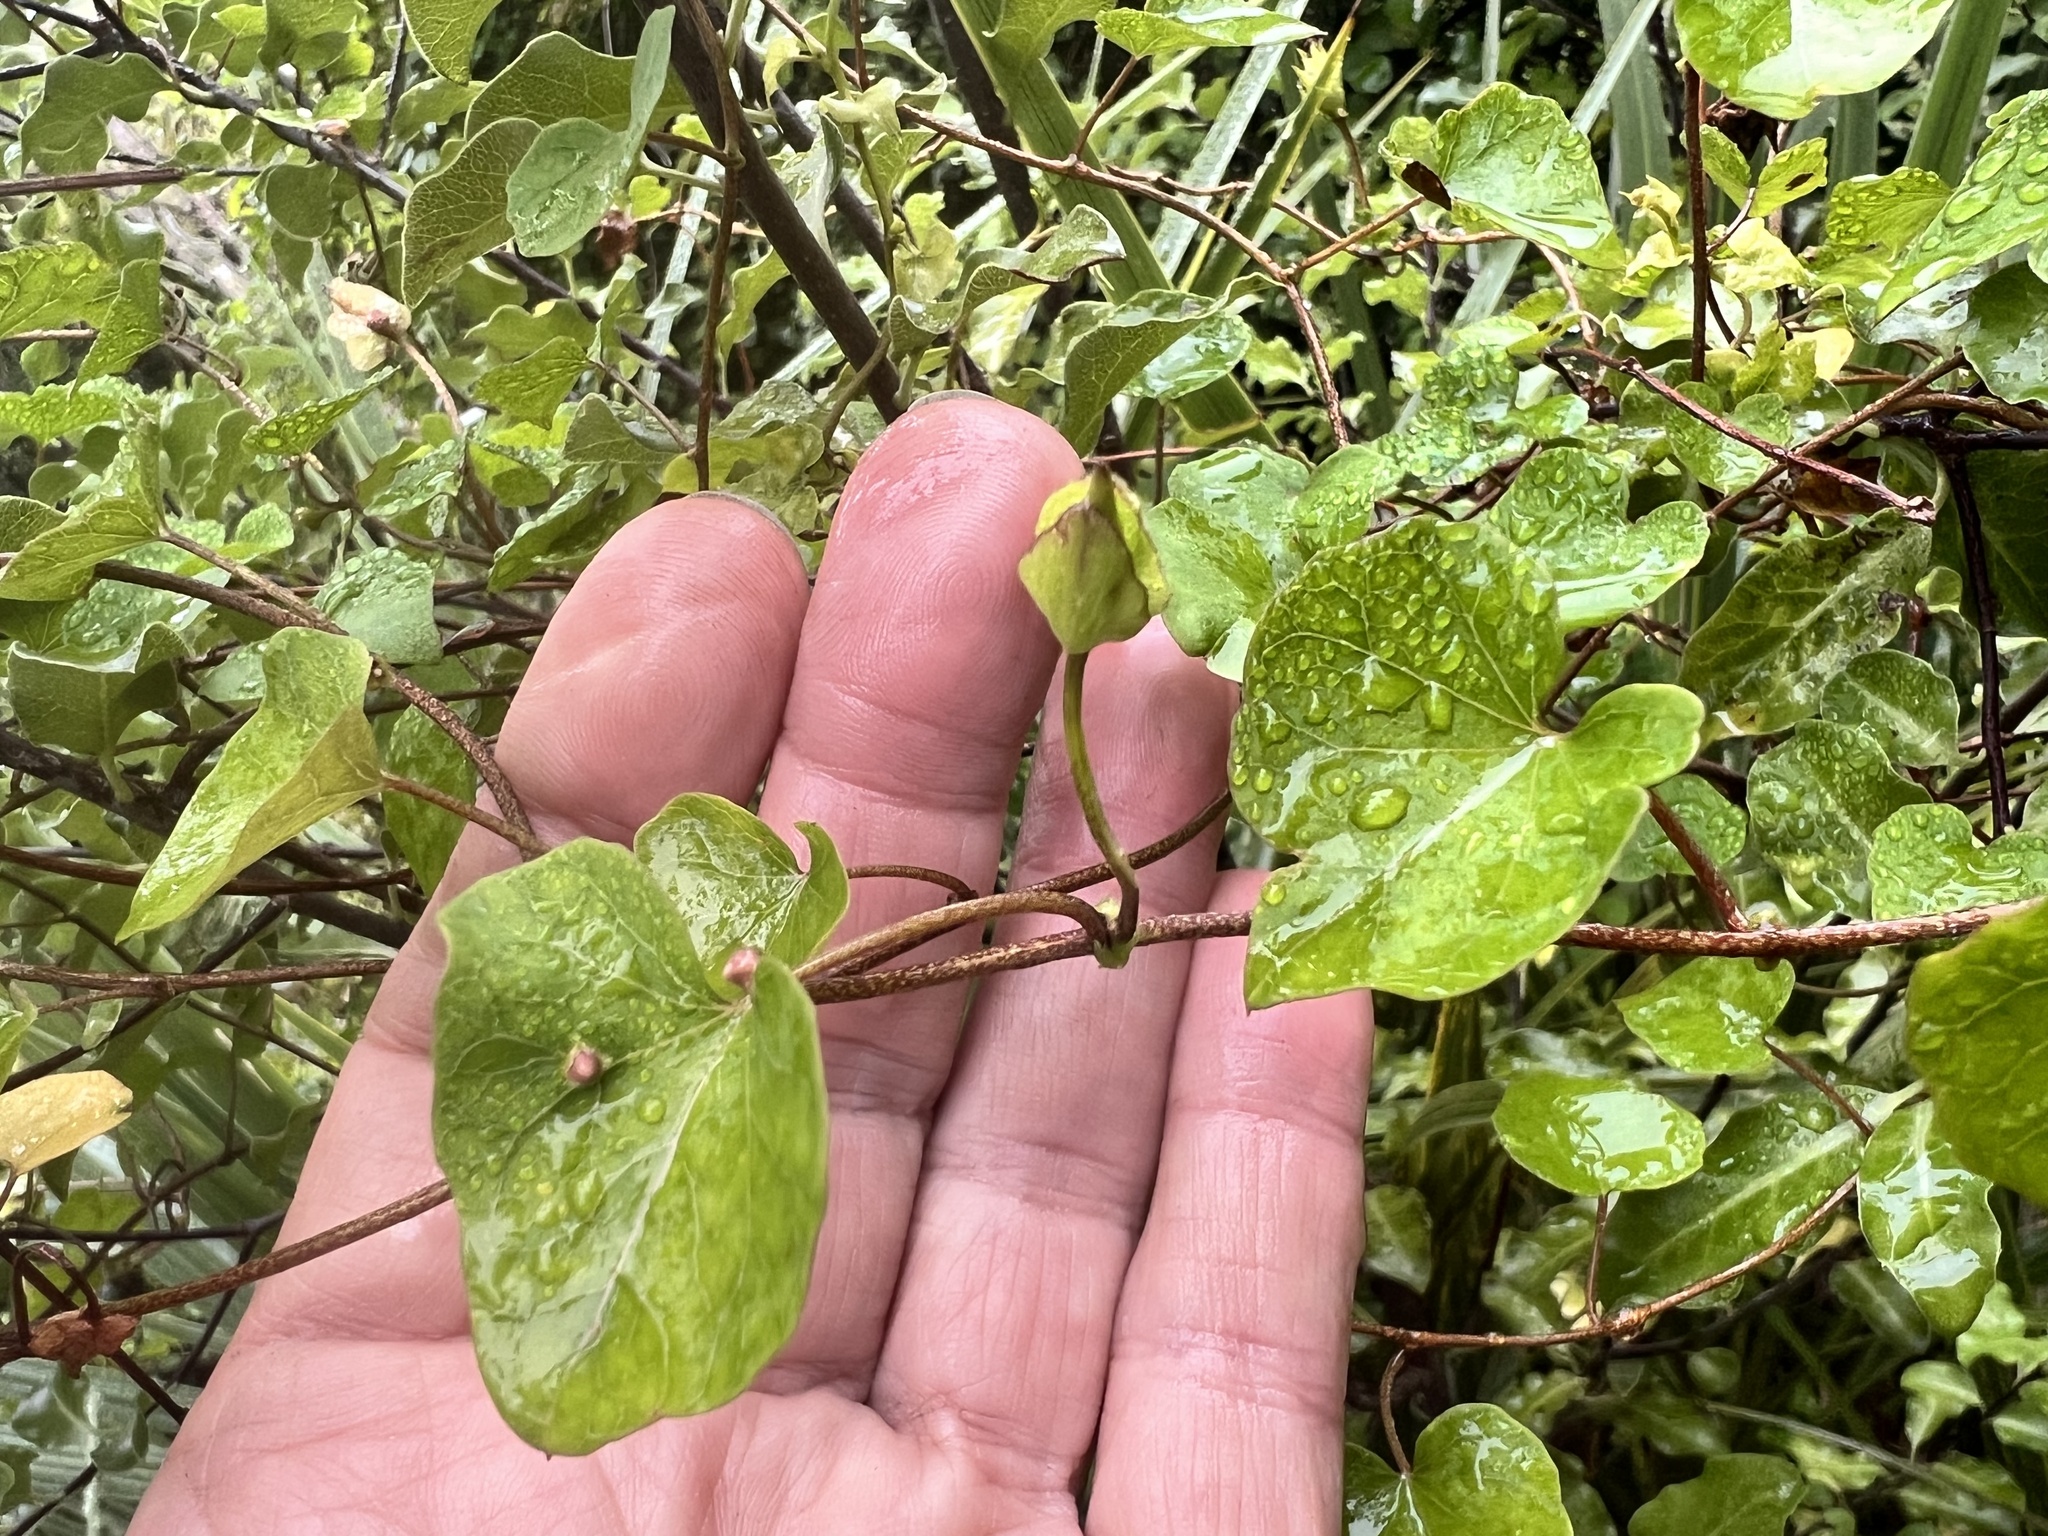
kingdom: Plantae
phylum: Tracheophyta
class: Magnoliopsida
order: Solanales
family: Convolvulaceae
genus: Calystegia
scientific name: Calystegia tuguriorum
